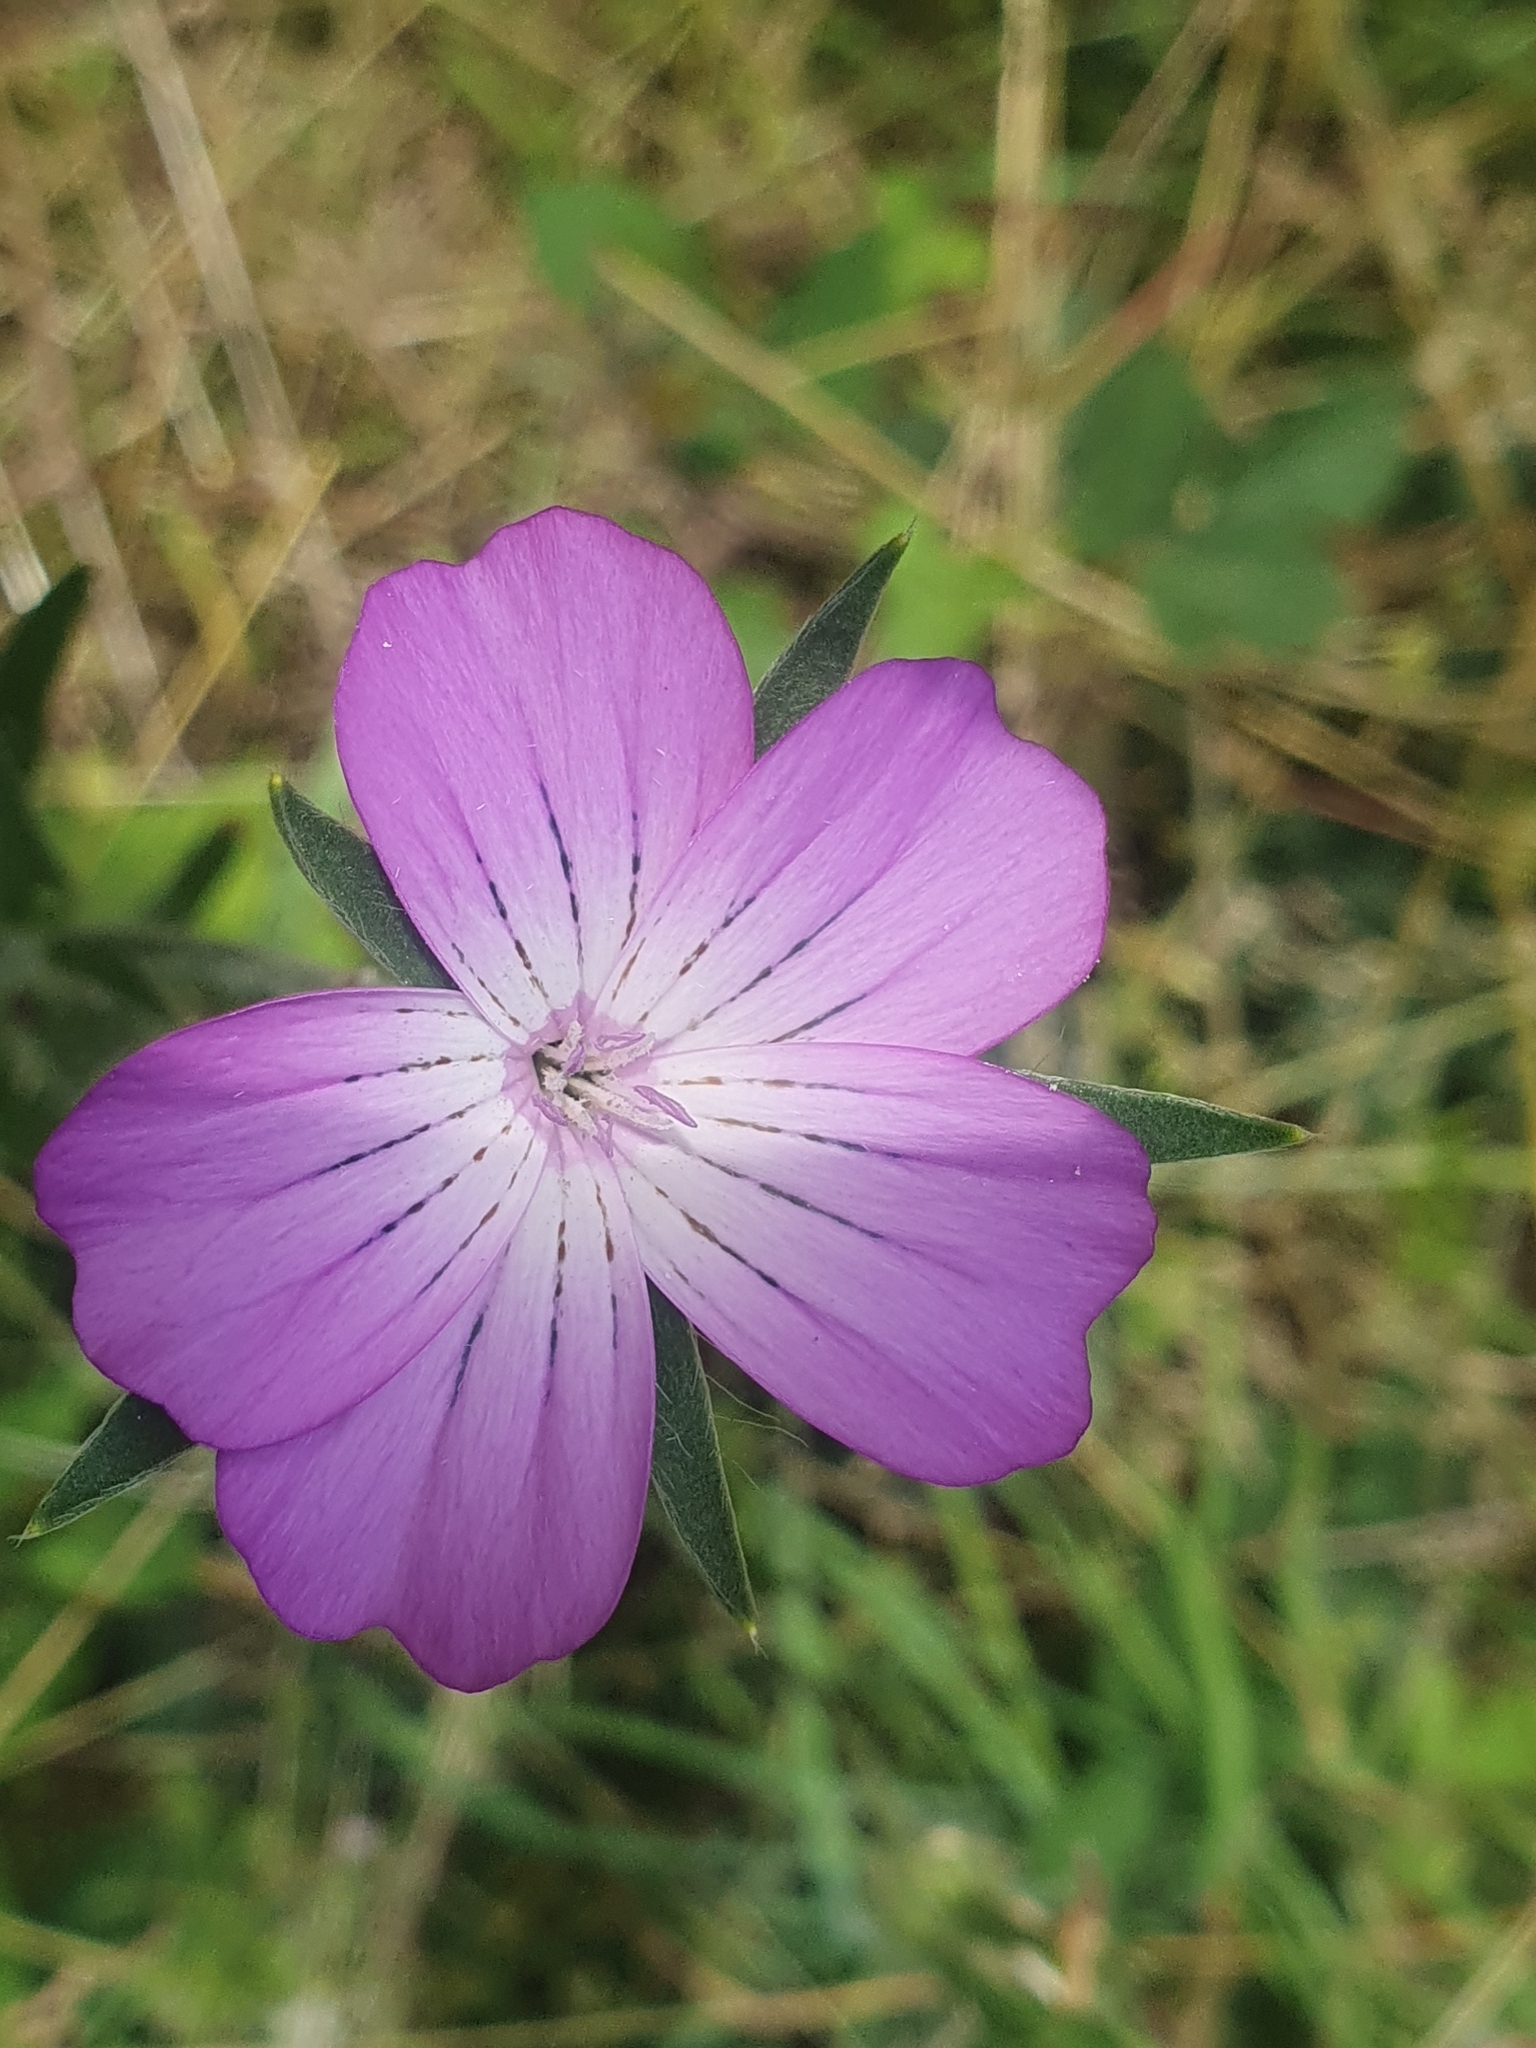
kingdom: Plantae
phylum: Tracheophyta
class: Magnoliopsida
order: Caryophyllales
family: Caryophyllaceae
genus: Agrostemma
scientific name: Agrostemma githago
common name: Common corncockle
